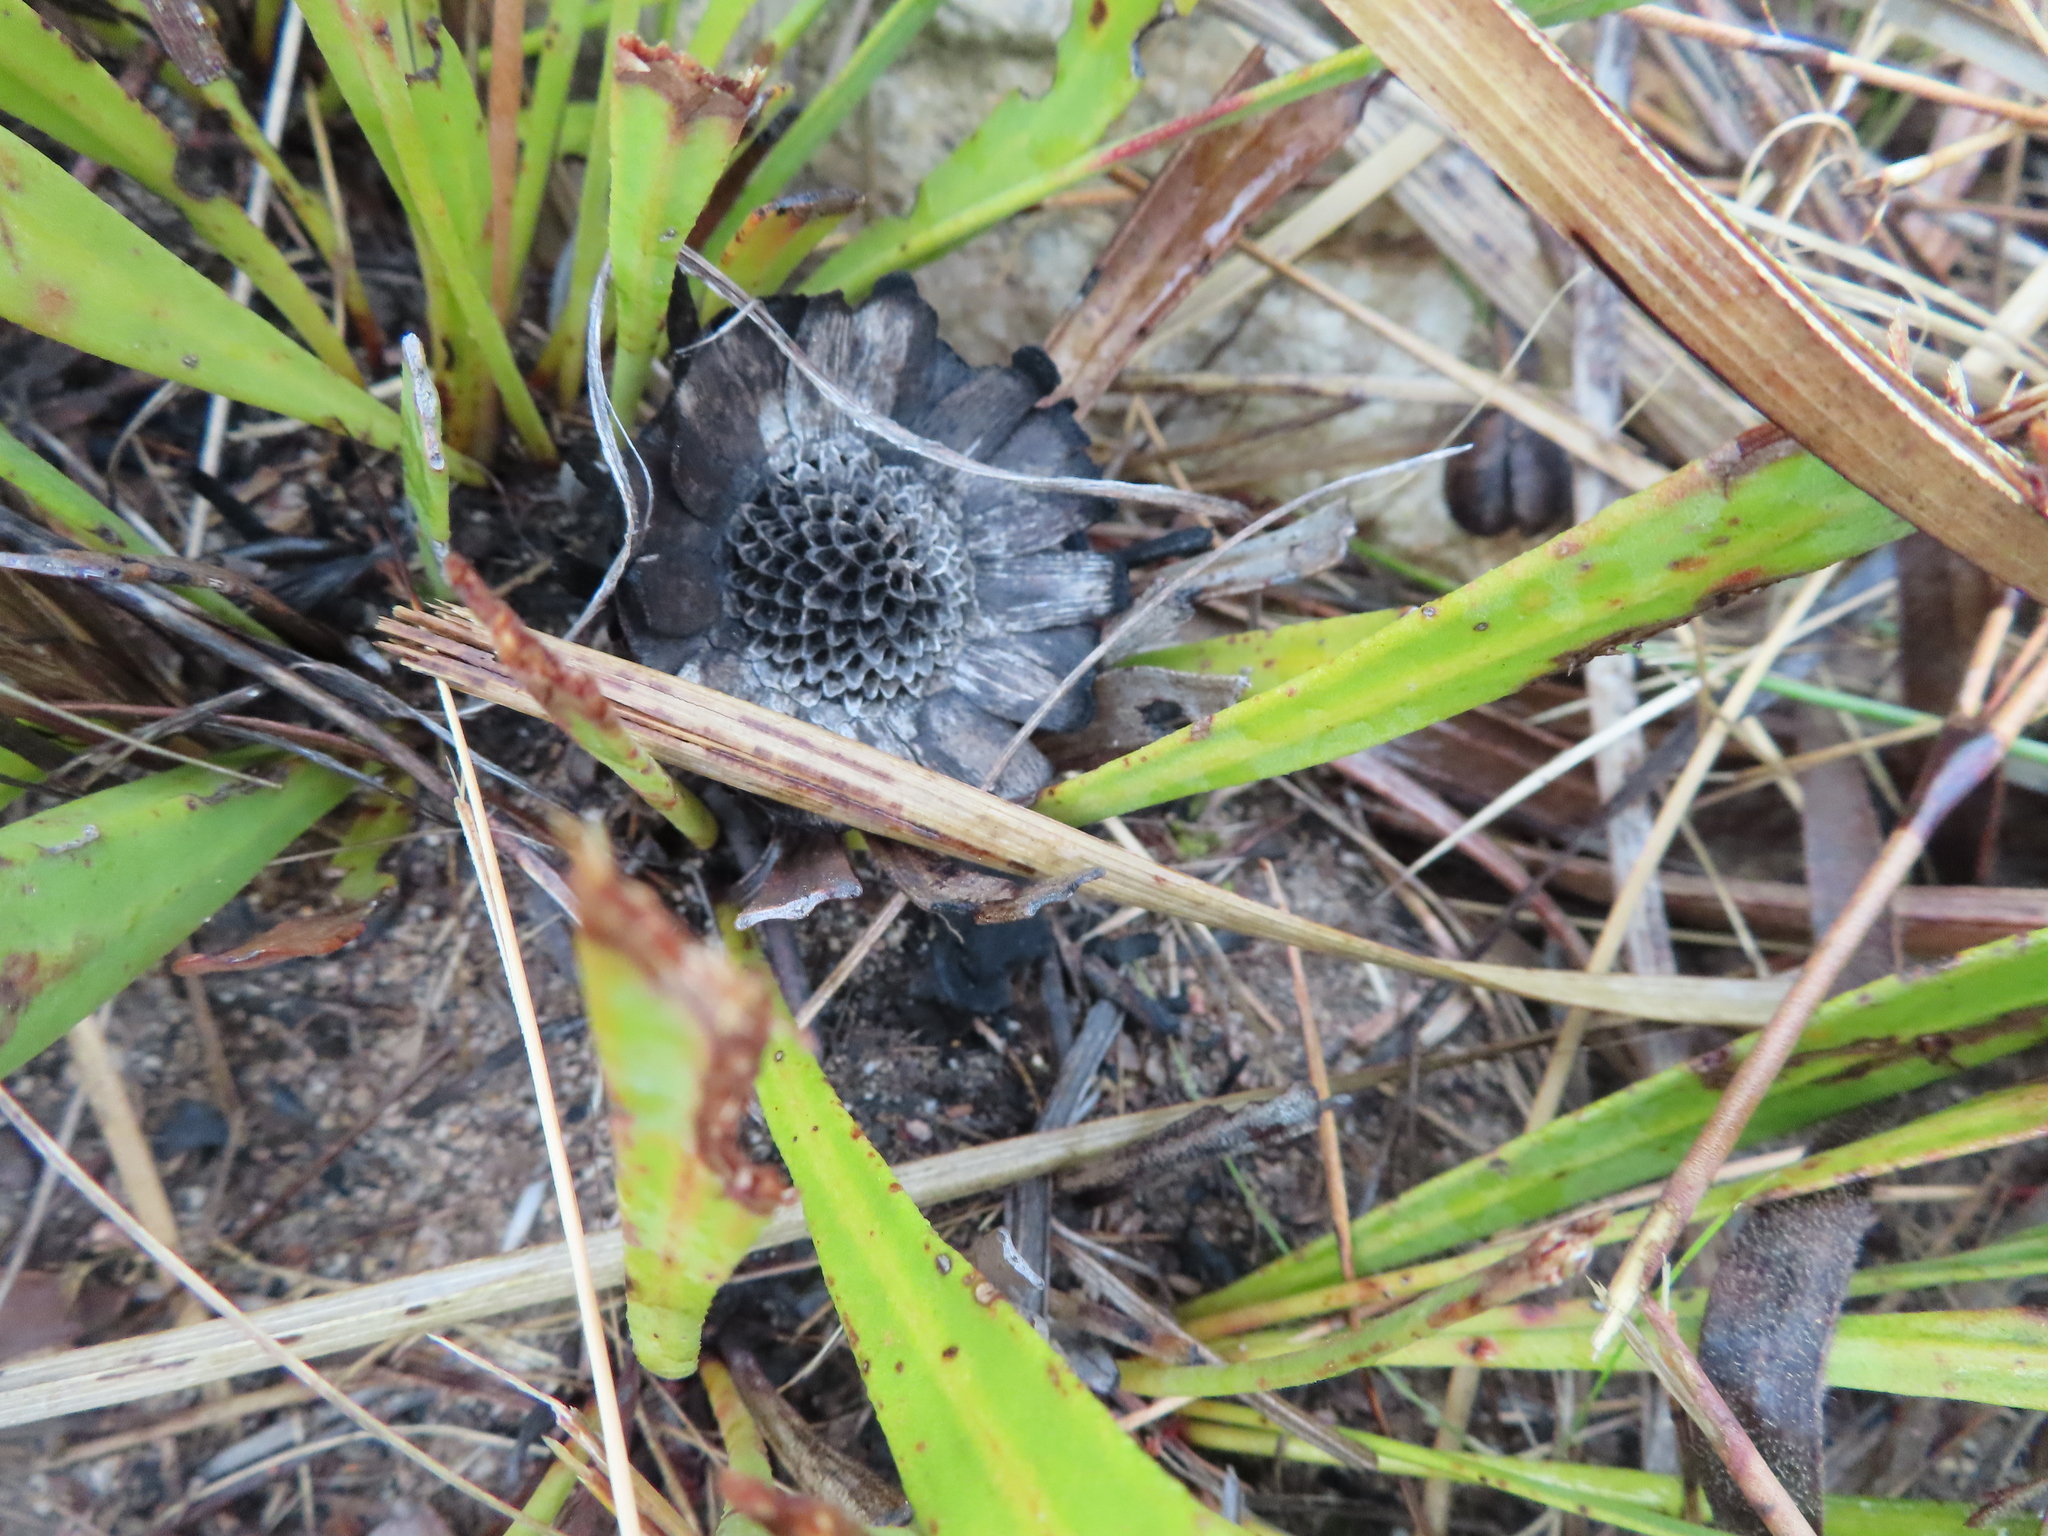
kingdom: Plantae
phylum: Tracheophyta
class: Magnoliopsida
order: Proteales
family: Proteaceae
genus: Protea
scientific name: Protea scabra
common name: Sandpaper-leaf sugarbush
